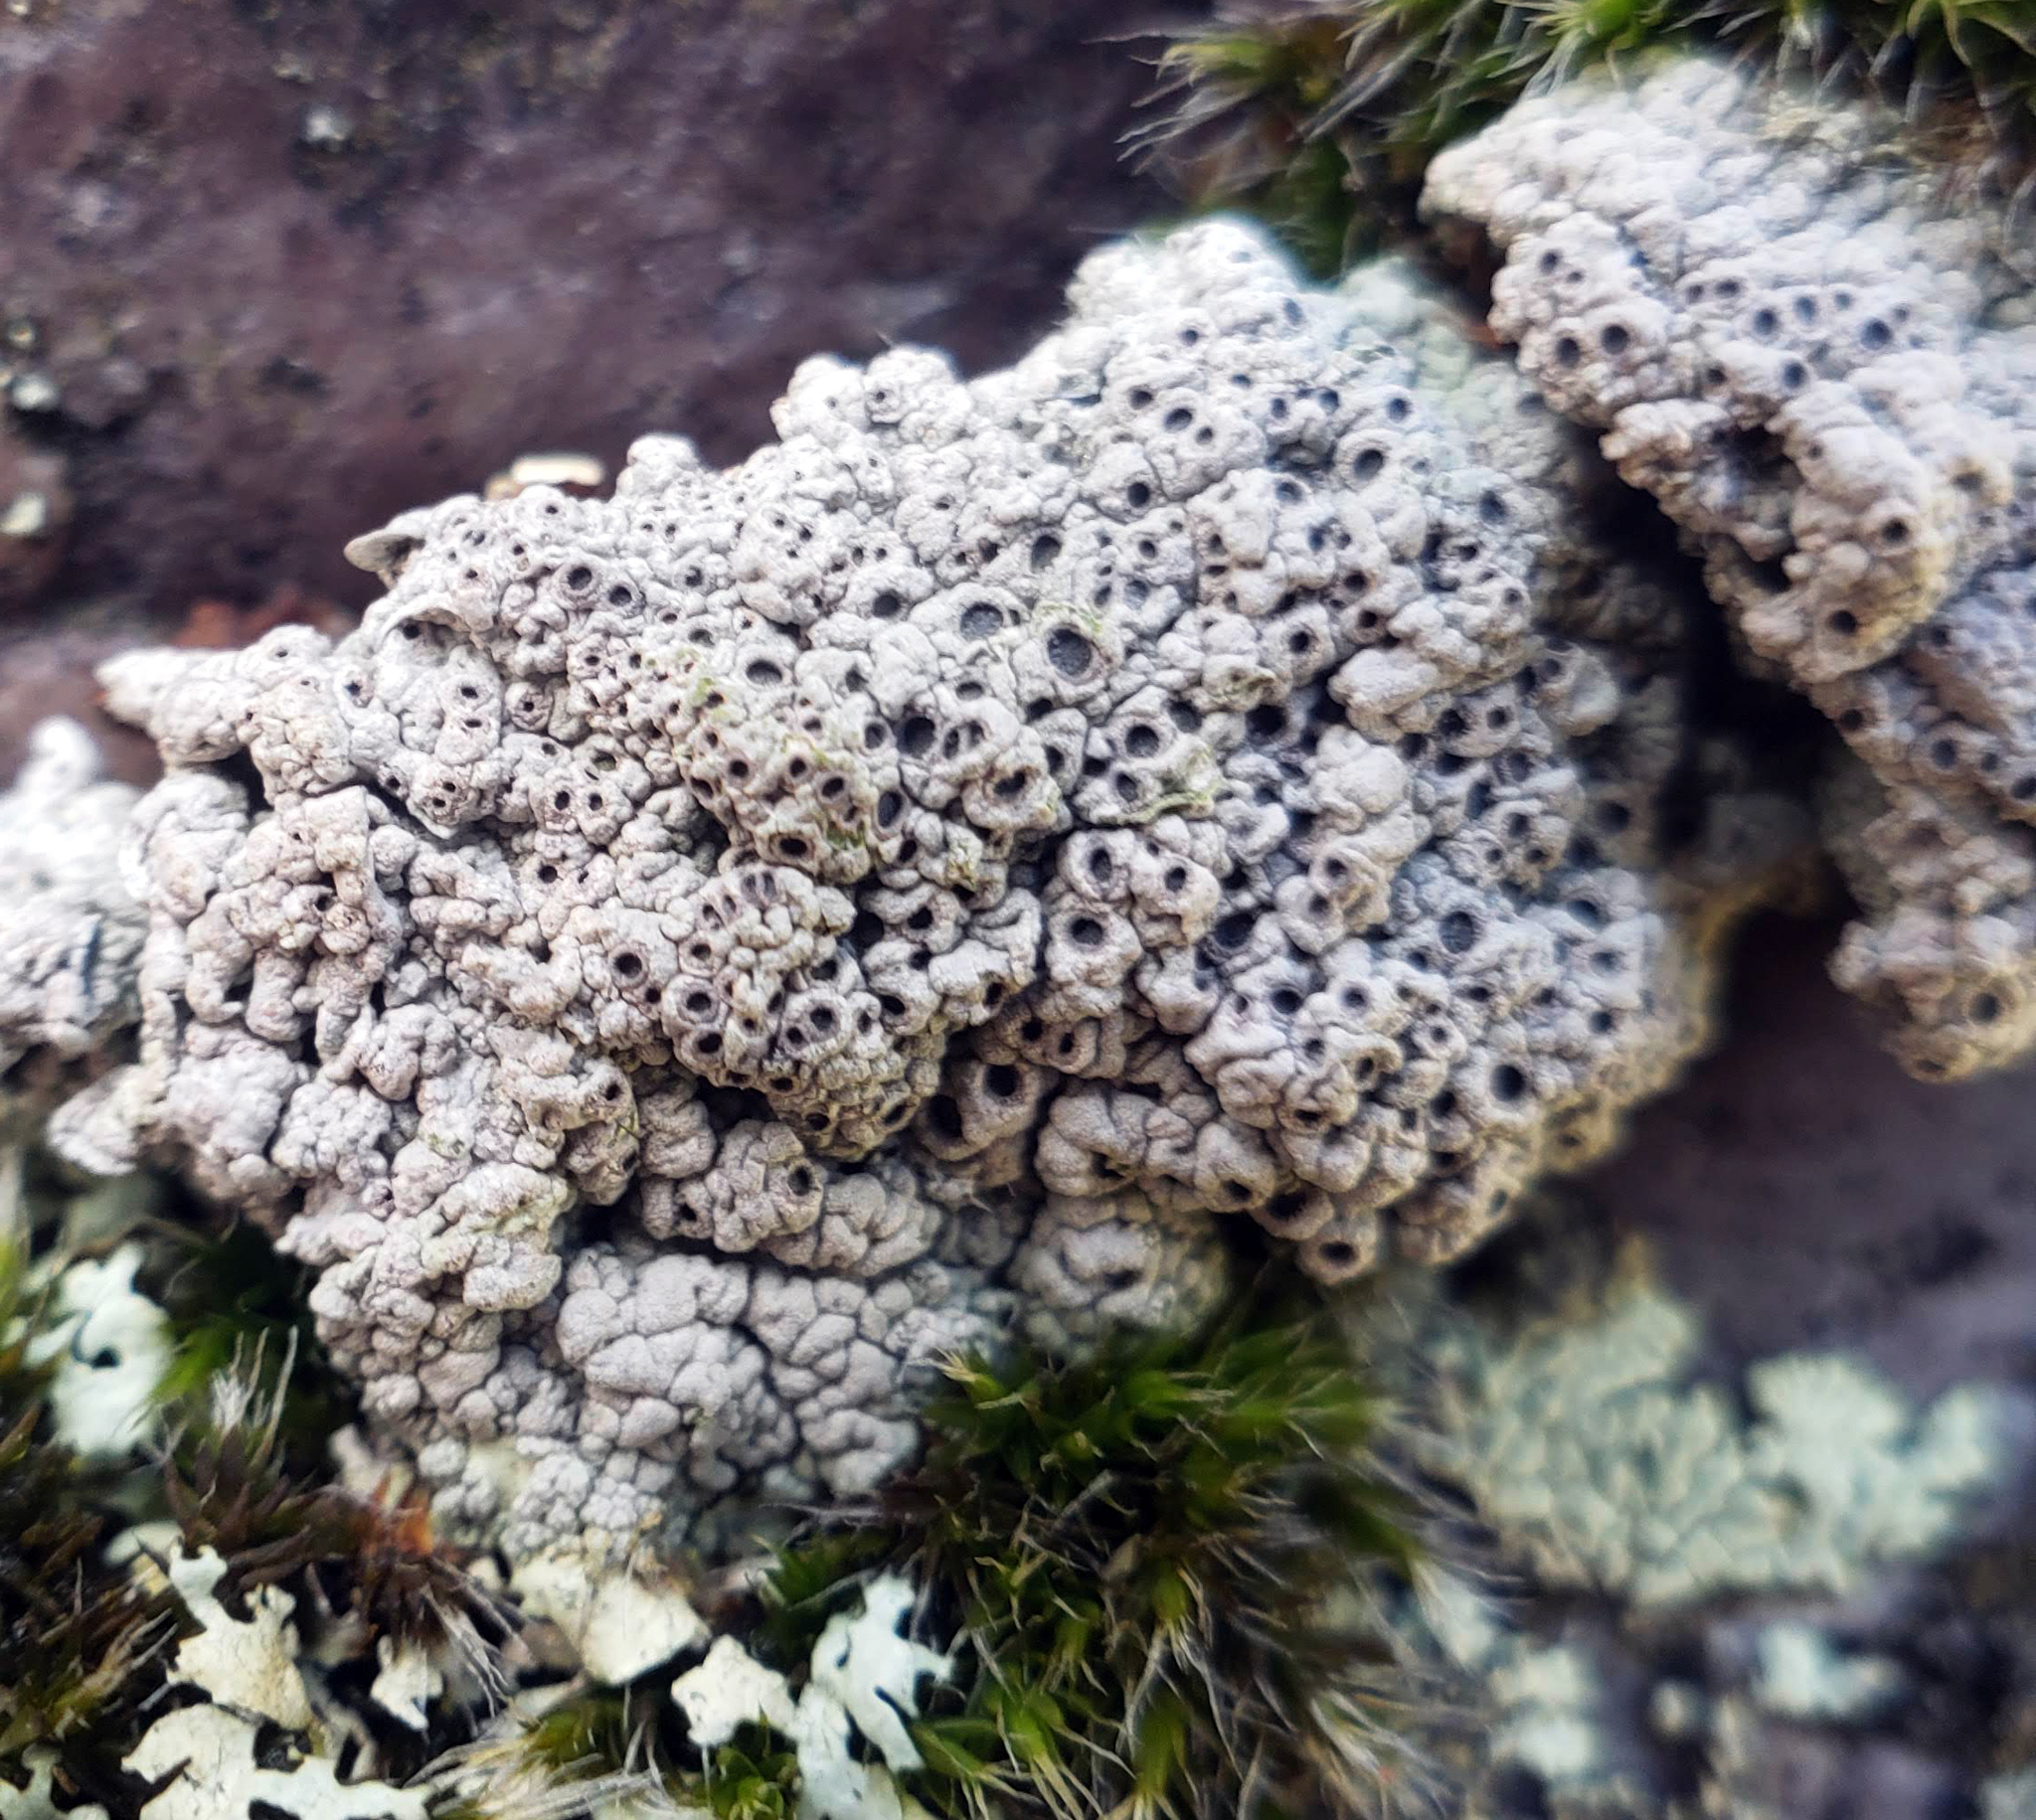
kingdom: Fungi
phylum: Ascomycota
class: Lecanoromycetes
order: Ostropales
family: Graphidaceae
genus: Diploschistes
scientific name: Diploschistes muscorum
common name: Cowpie lichen
